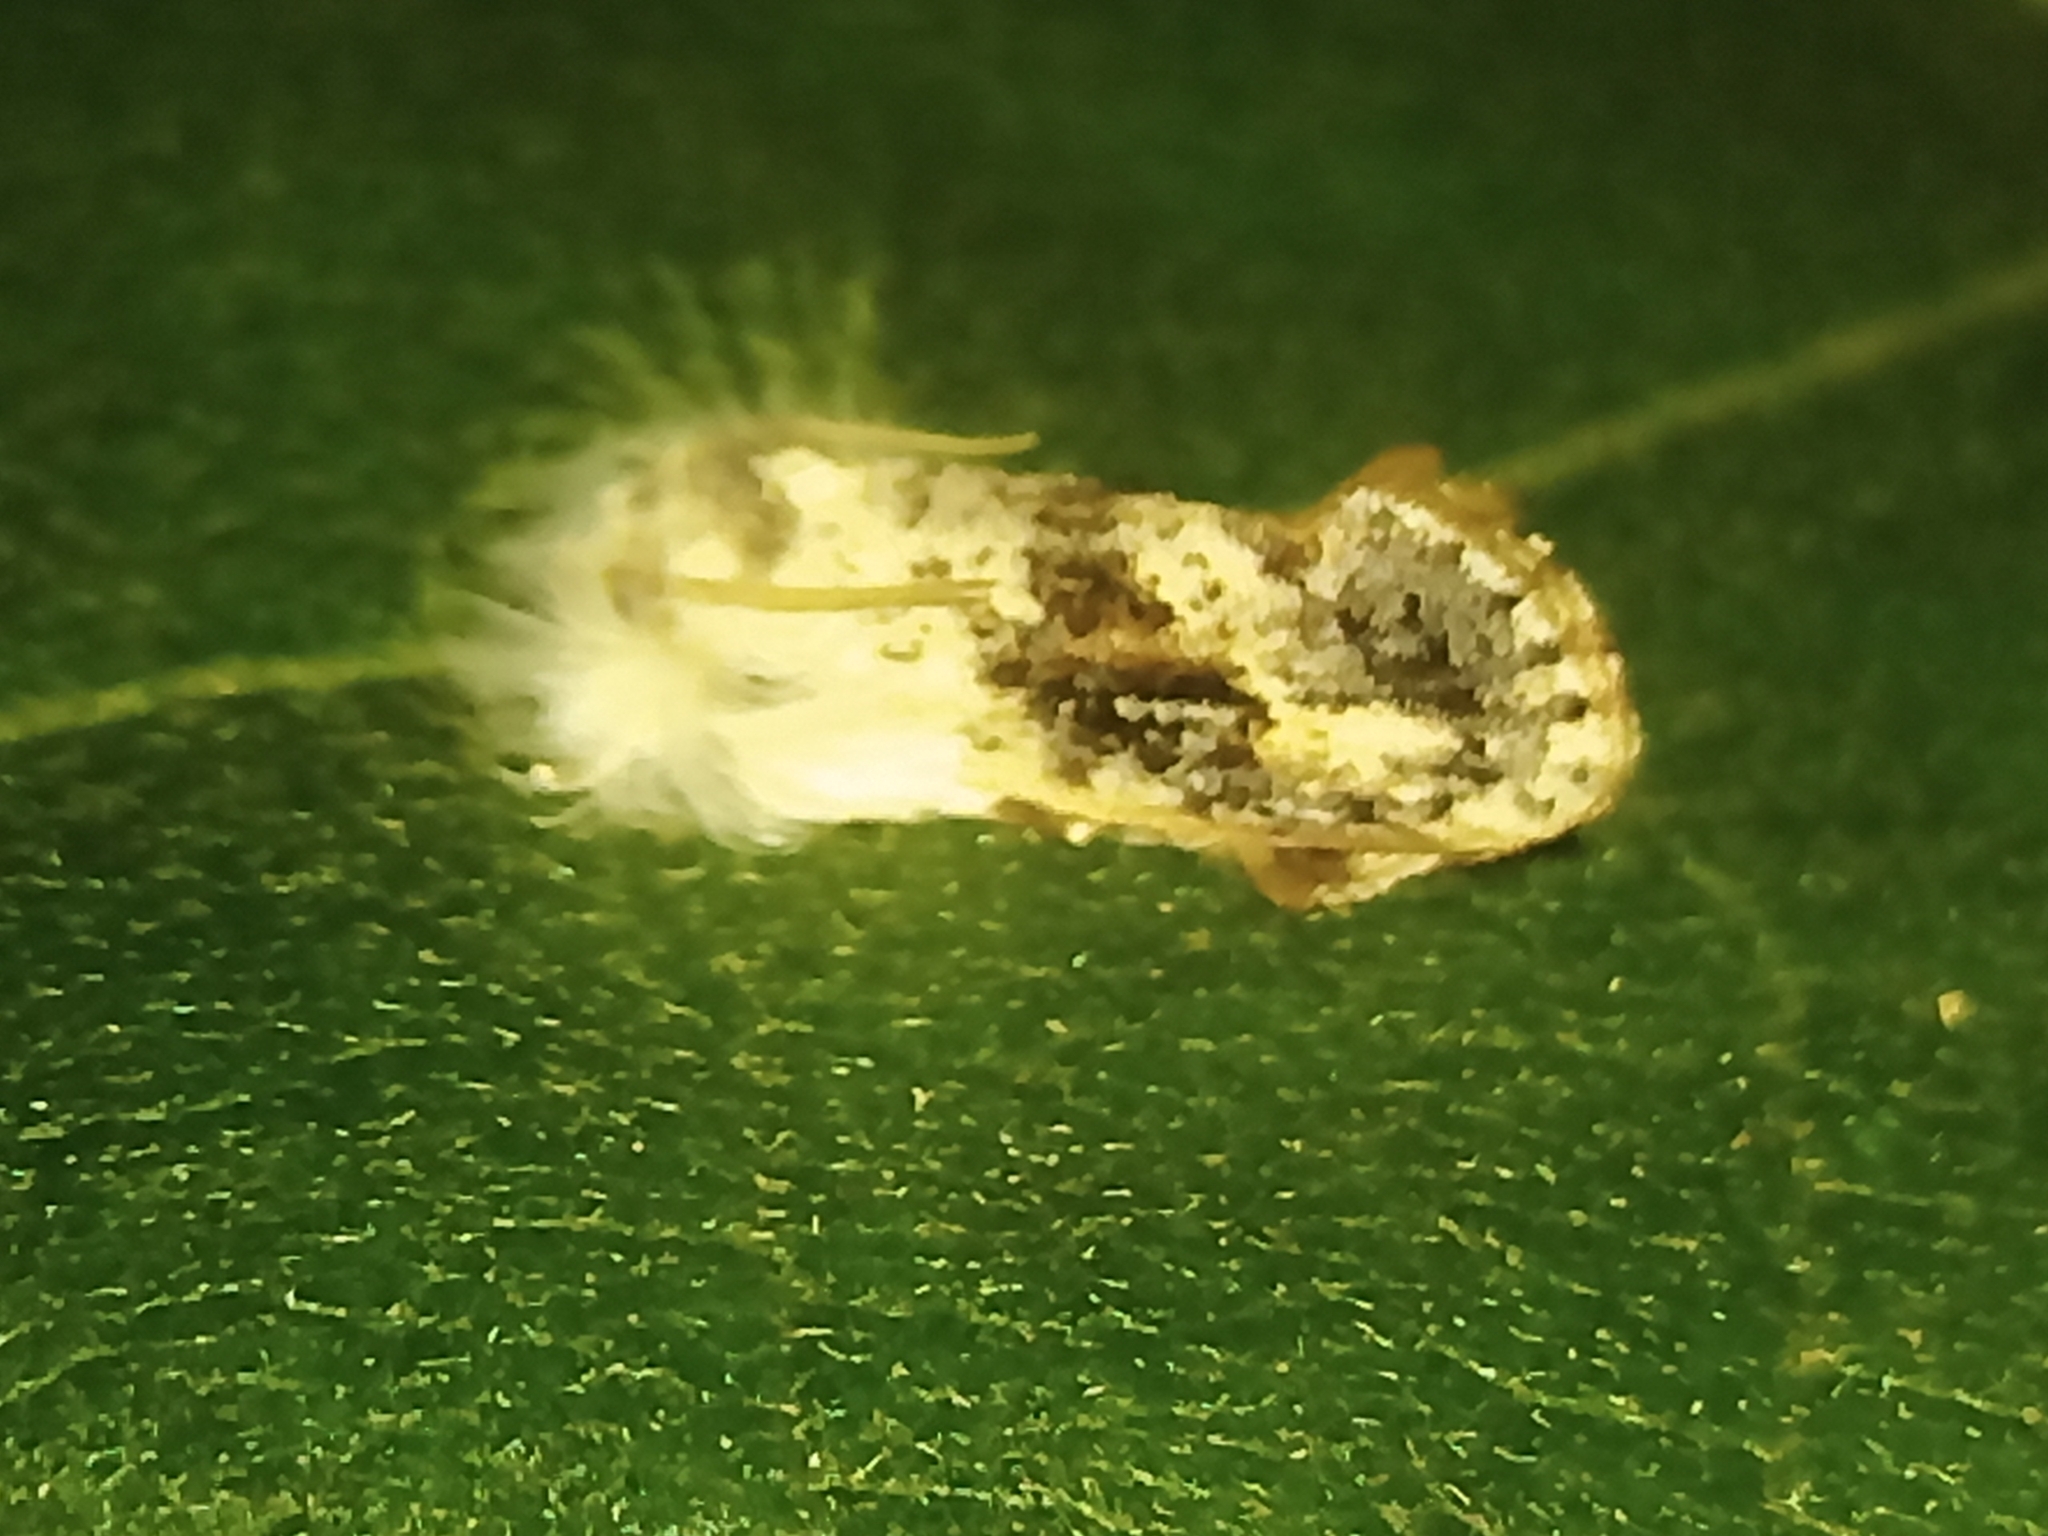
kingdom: Animalia
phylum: Arthropoda
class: Insecta
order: Lepidoptera
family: Tineidae
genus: Acrolophus
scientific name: Acrolophus mycetophagus
